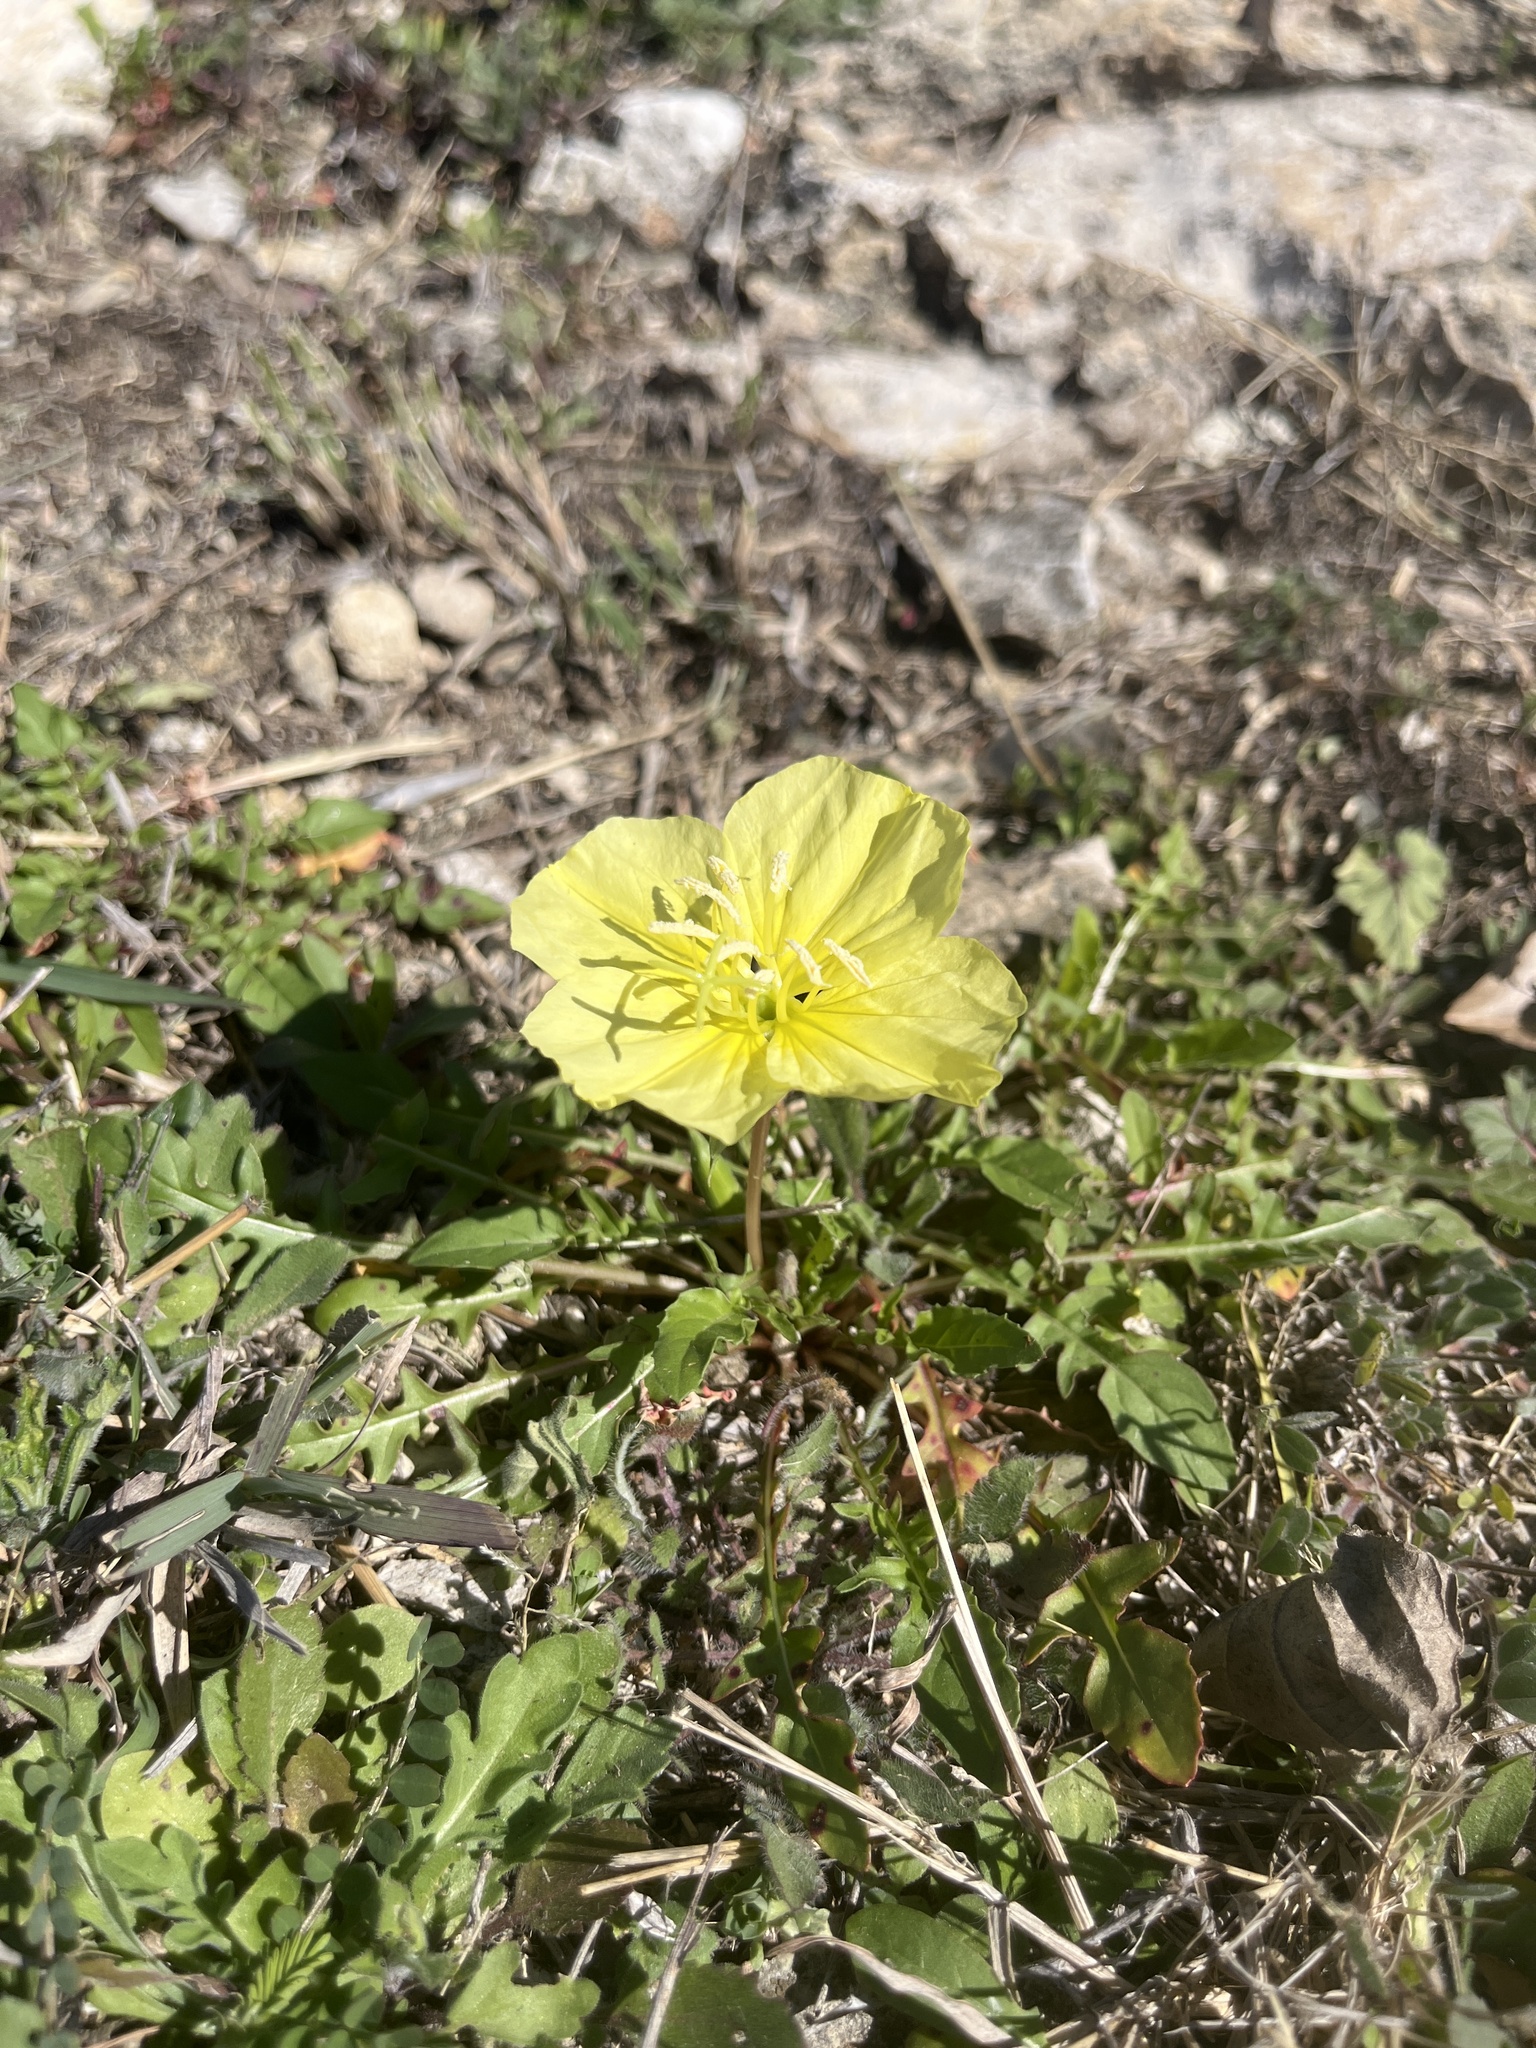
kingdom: Plantae
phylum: Tracheophyta
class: Magnoliopsida
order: Myrtales
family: Onagraceae
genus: Oenothera
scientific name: Oenothera triloba
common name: Sessile evening-primrose
